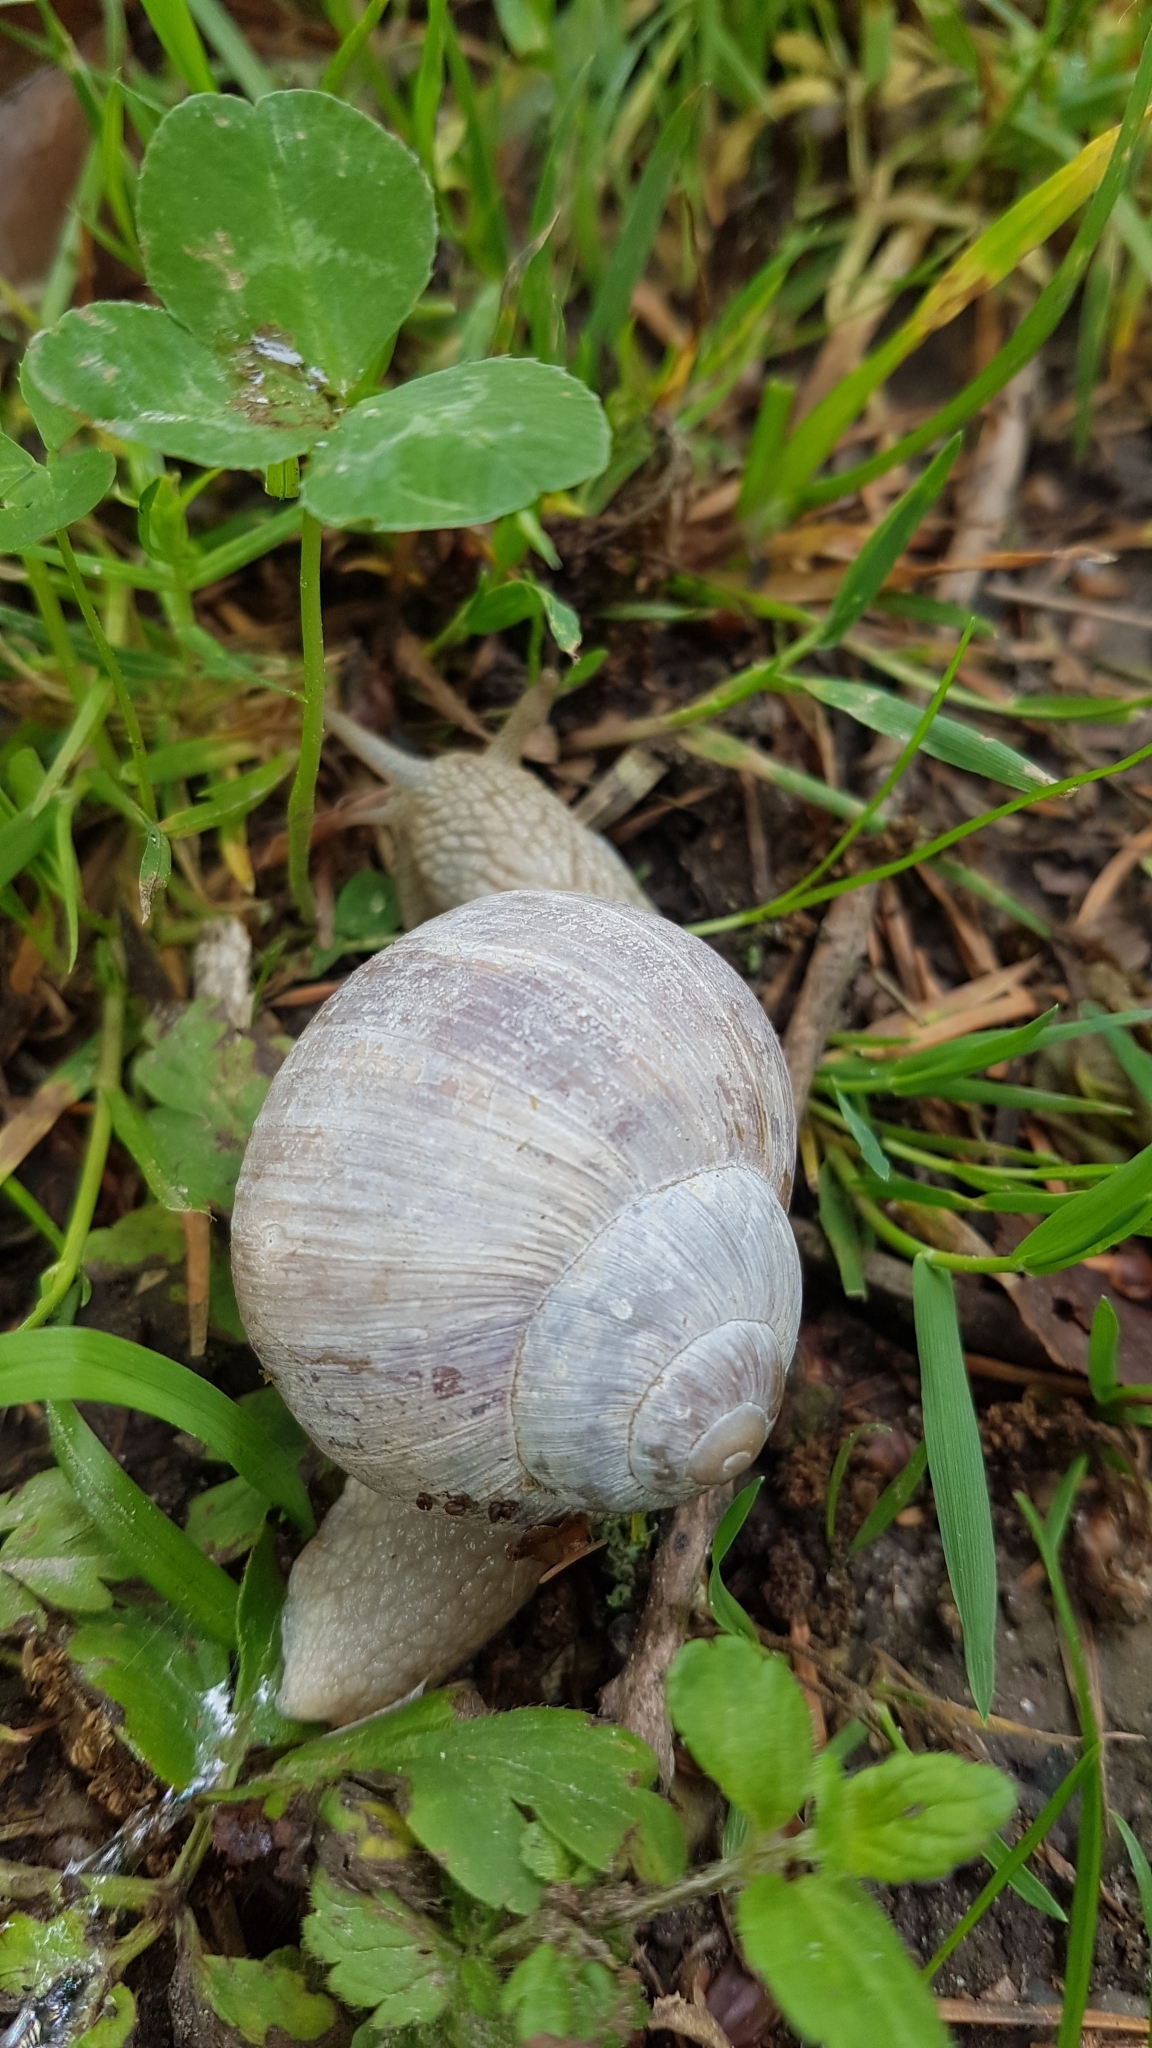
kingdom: Animalia
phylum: Mollusca
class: Gastropoda
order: Stylommatophora
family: Helicidae
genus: Helix
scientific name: Helix pomatia
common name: Roman snail
